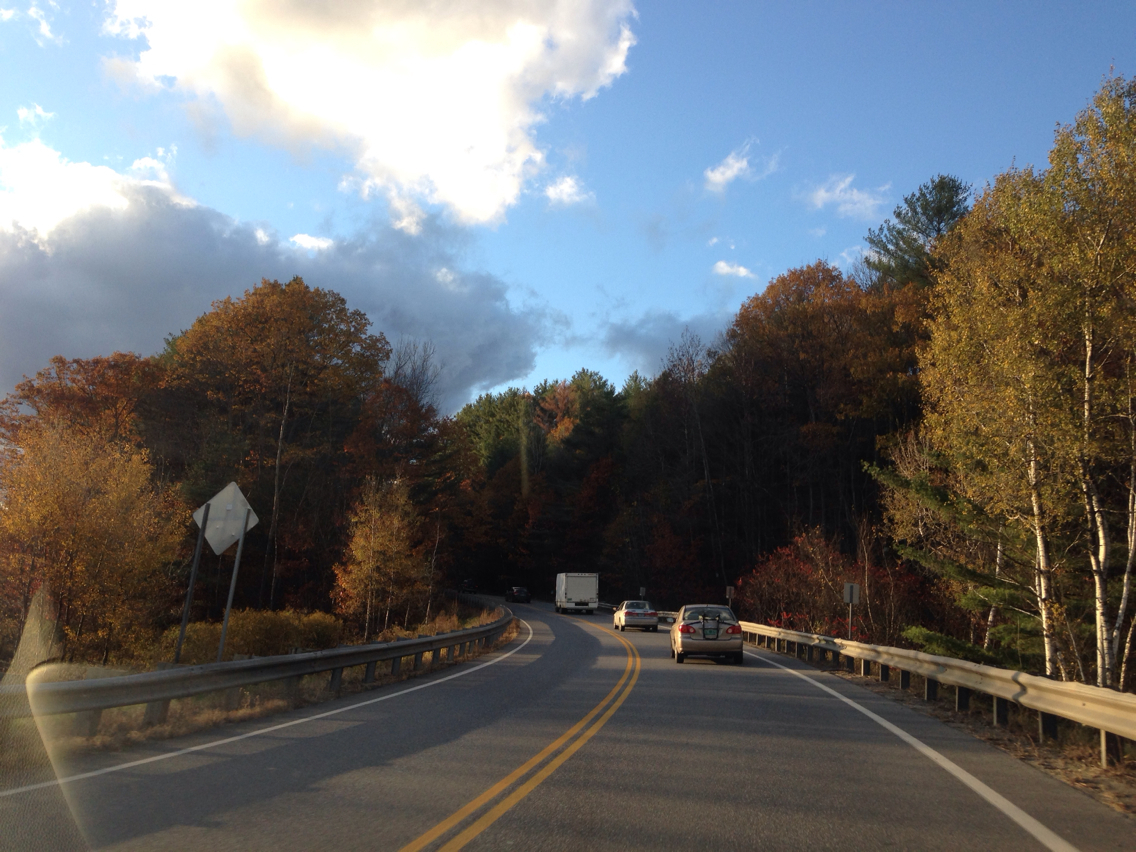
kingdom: Plantae
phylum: Tracheophyta
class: Magnoliopsida
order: Fagales
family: Fagaceae
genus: Quercus
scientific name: Quercus rubra
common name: Red oak
